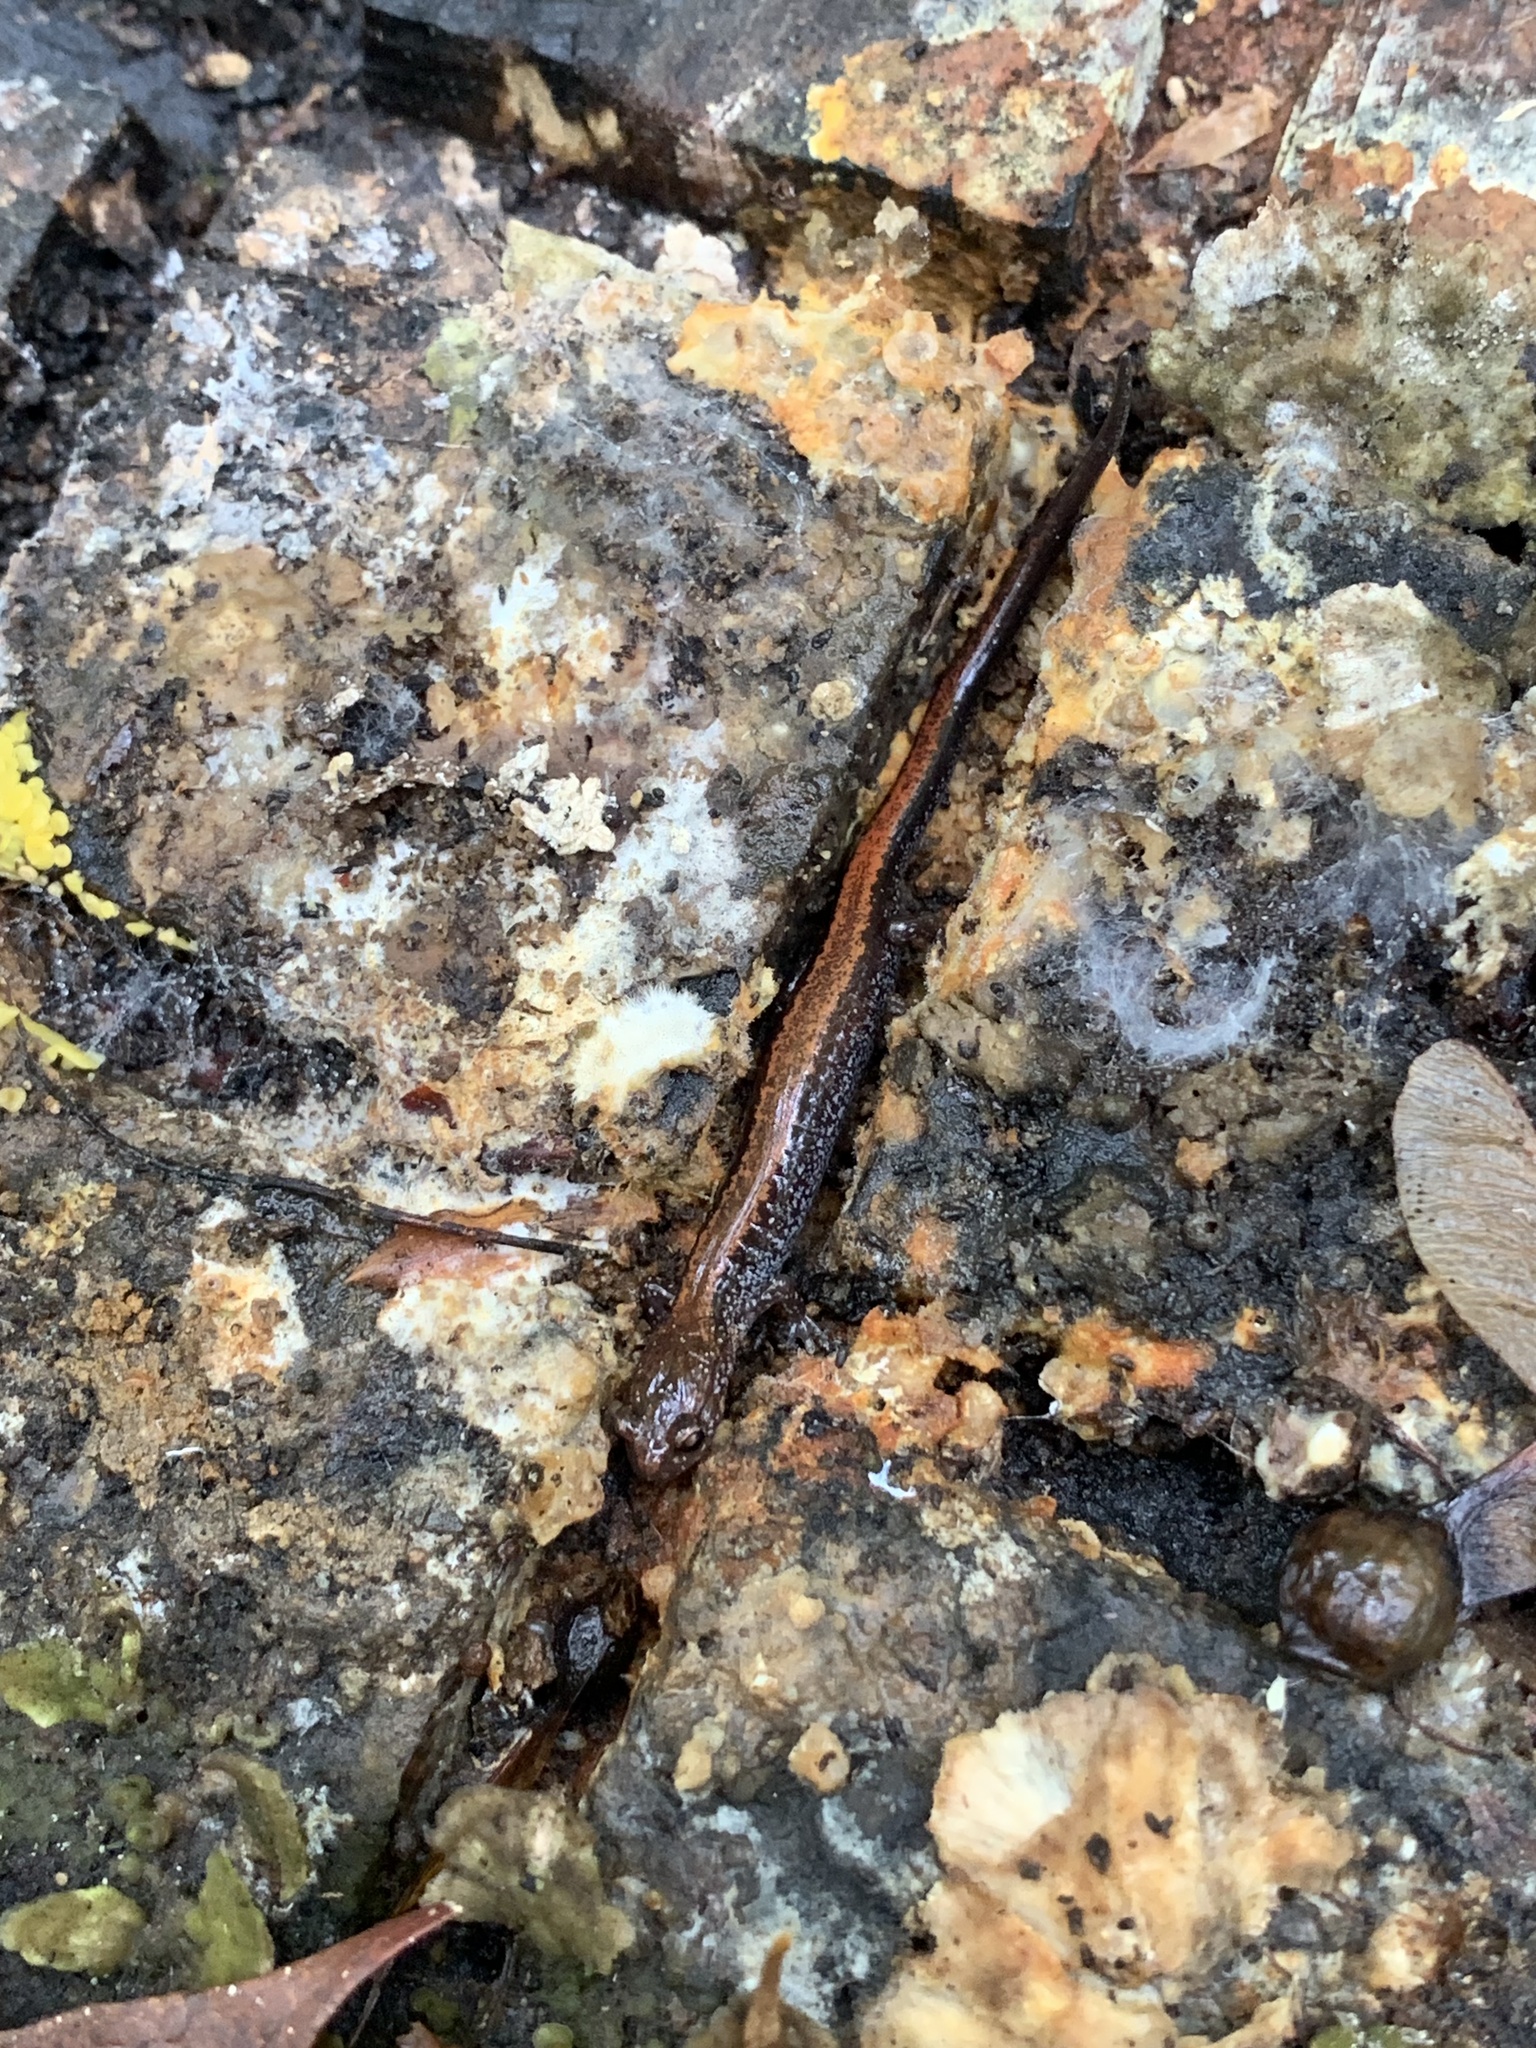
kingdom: Animalia
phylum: Chordata
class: Amphibia
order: Caudata
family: Plethodontidae
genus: Plethodon
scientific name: Plethodon cinereus
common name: Redback salamander
